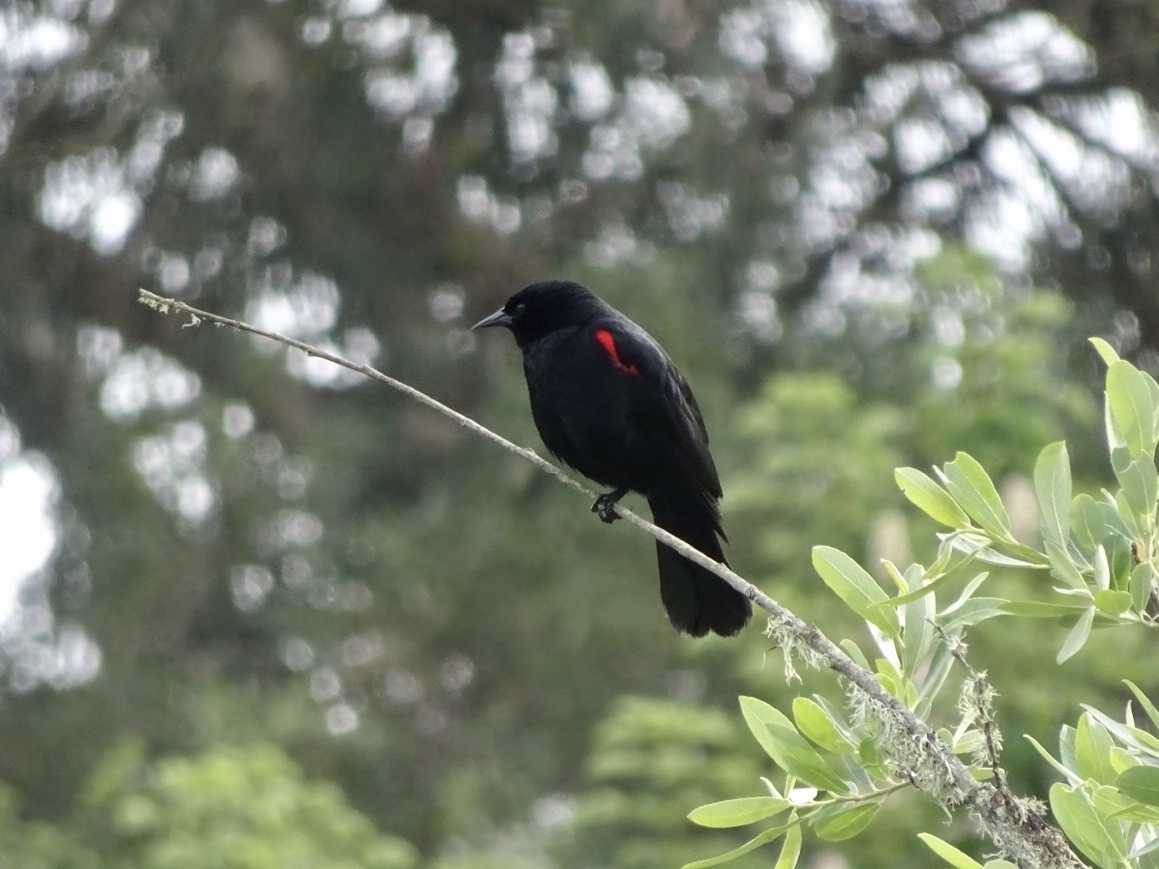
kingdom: Animalia
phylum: Chordata
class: Aves
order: Passeriformes
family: Icteridae
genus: Agelaius
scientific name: Agelaius phoeniceus
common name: Red-winged blackbird
